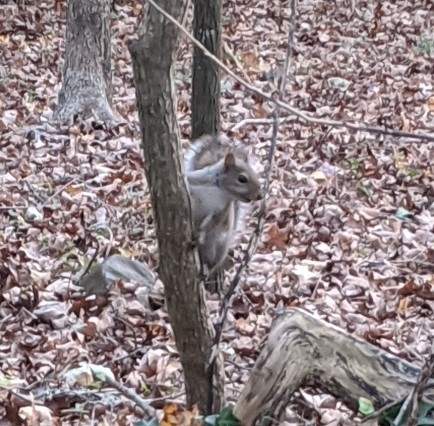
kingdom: Animalia
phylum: Chordata
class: Mammalia
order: Rodentia
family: Sciuridae
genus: Sciurus
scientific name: Sciurus carolinensis
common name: Eastern gray squirrel
